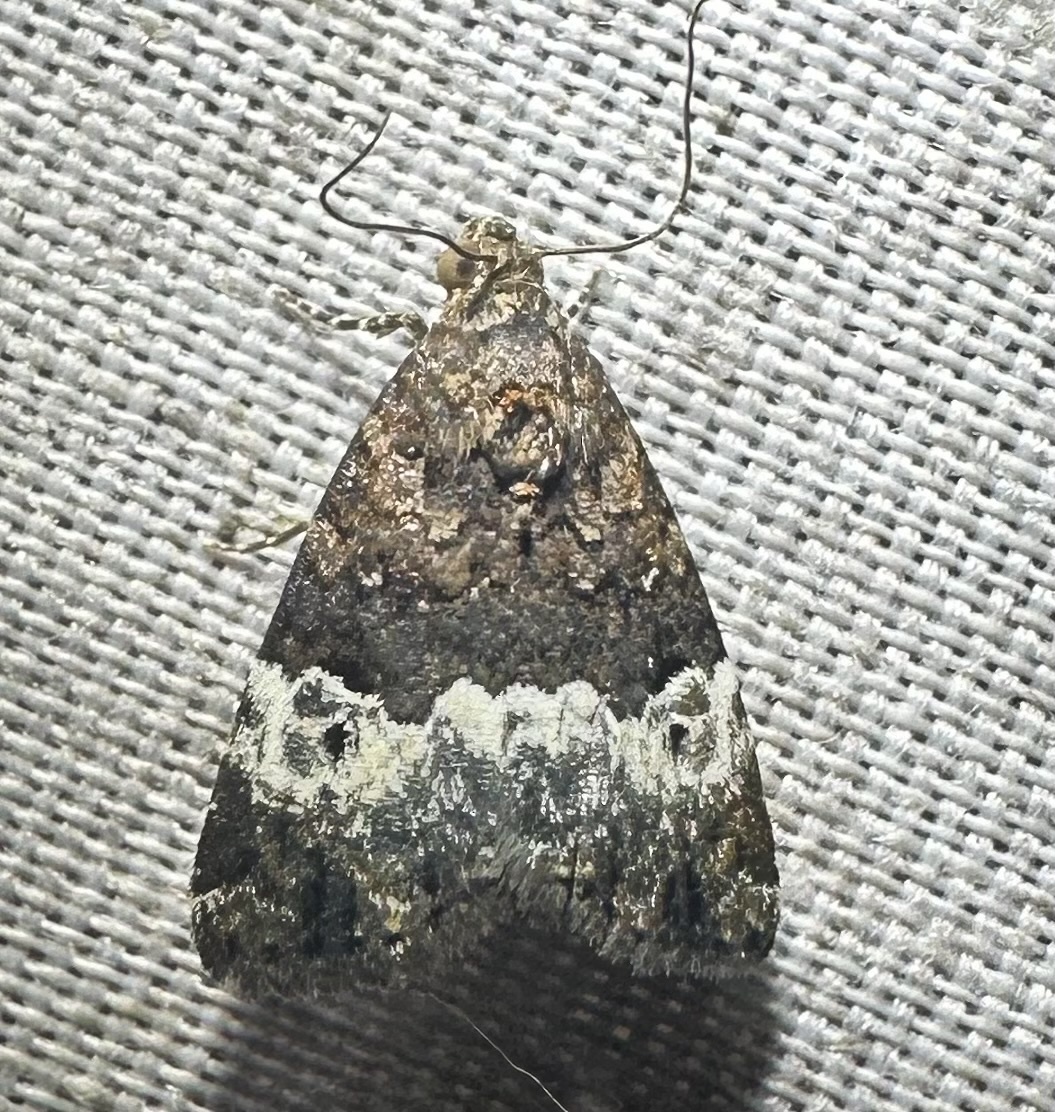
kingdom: Animalia
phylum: Arthropoda
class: Insecta
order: Lepidoptera
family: Noctuidae
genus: Eustrotia
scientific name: Eustrotia decissima
